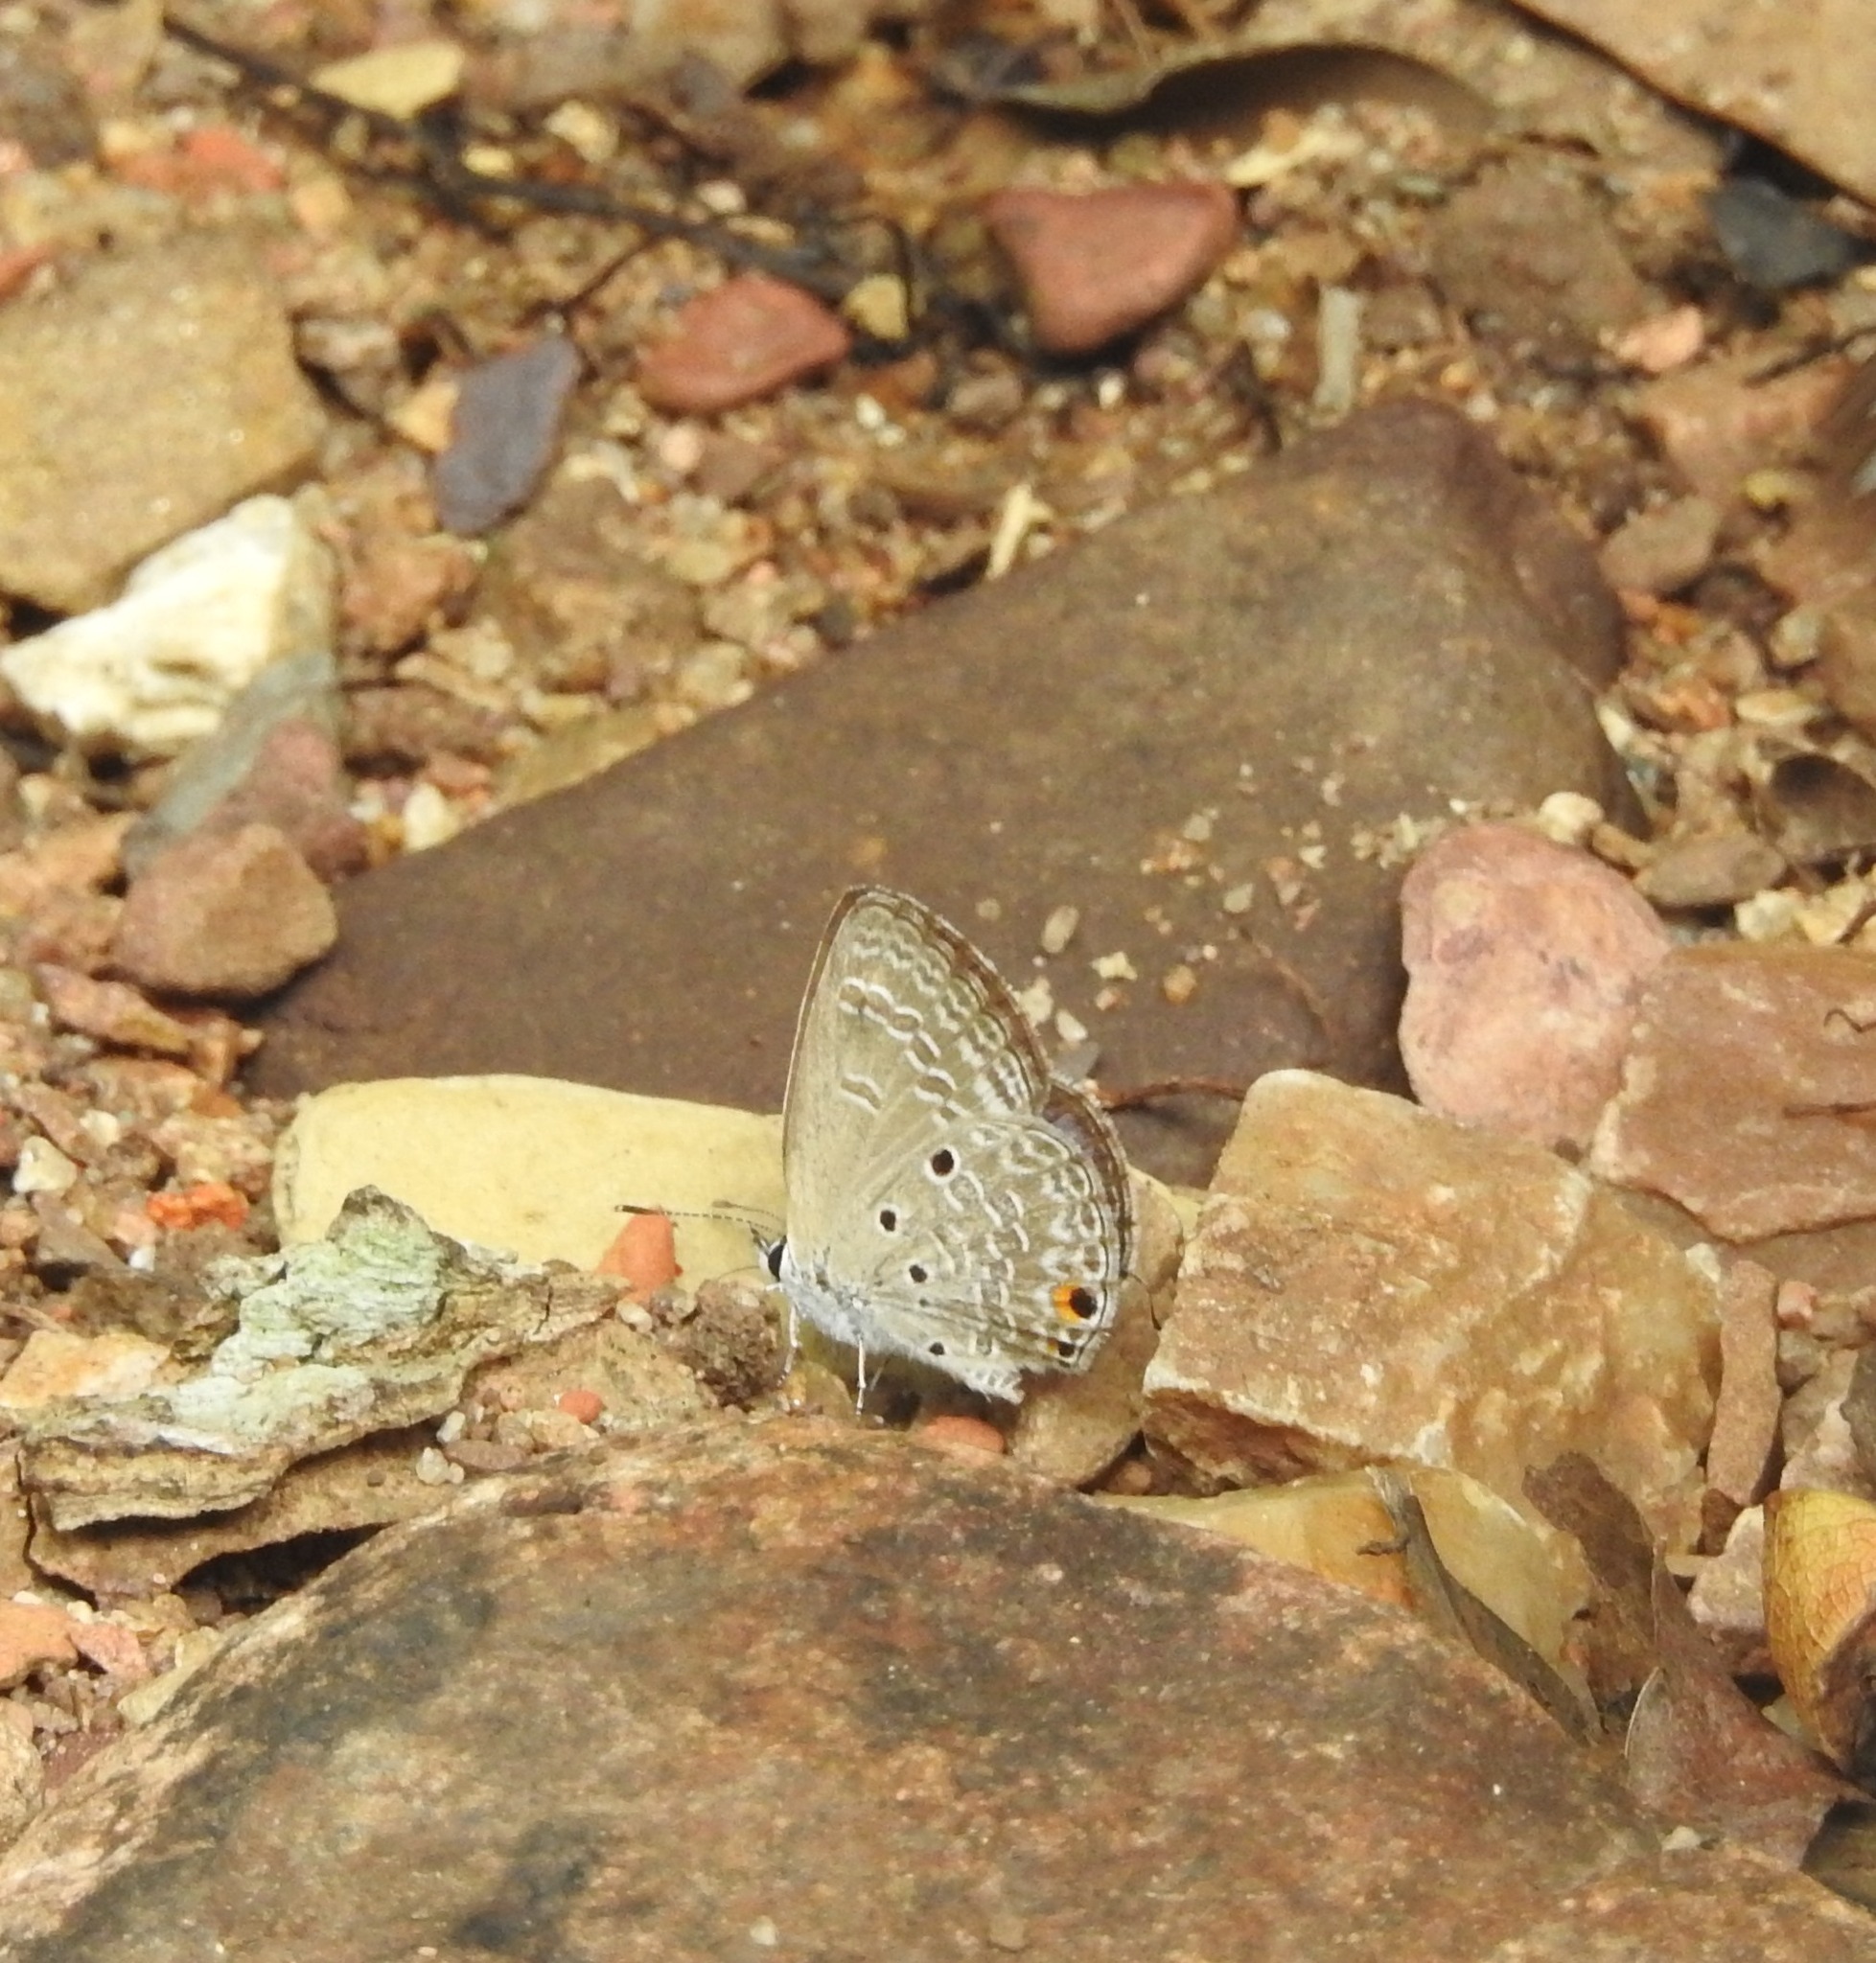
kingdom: Animalia
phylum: Arthropoda
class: Insecta
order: Lepidoptera
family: Lycaenidae
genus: Luthrodes
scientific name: Luthrodes pandava
